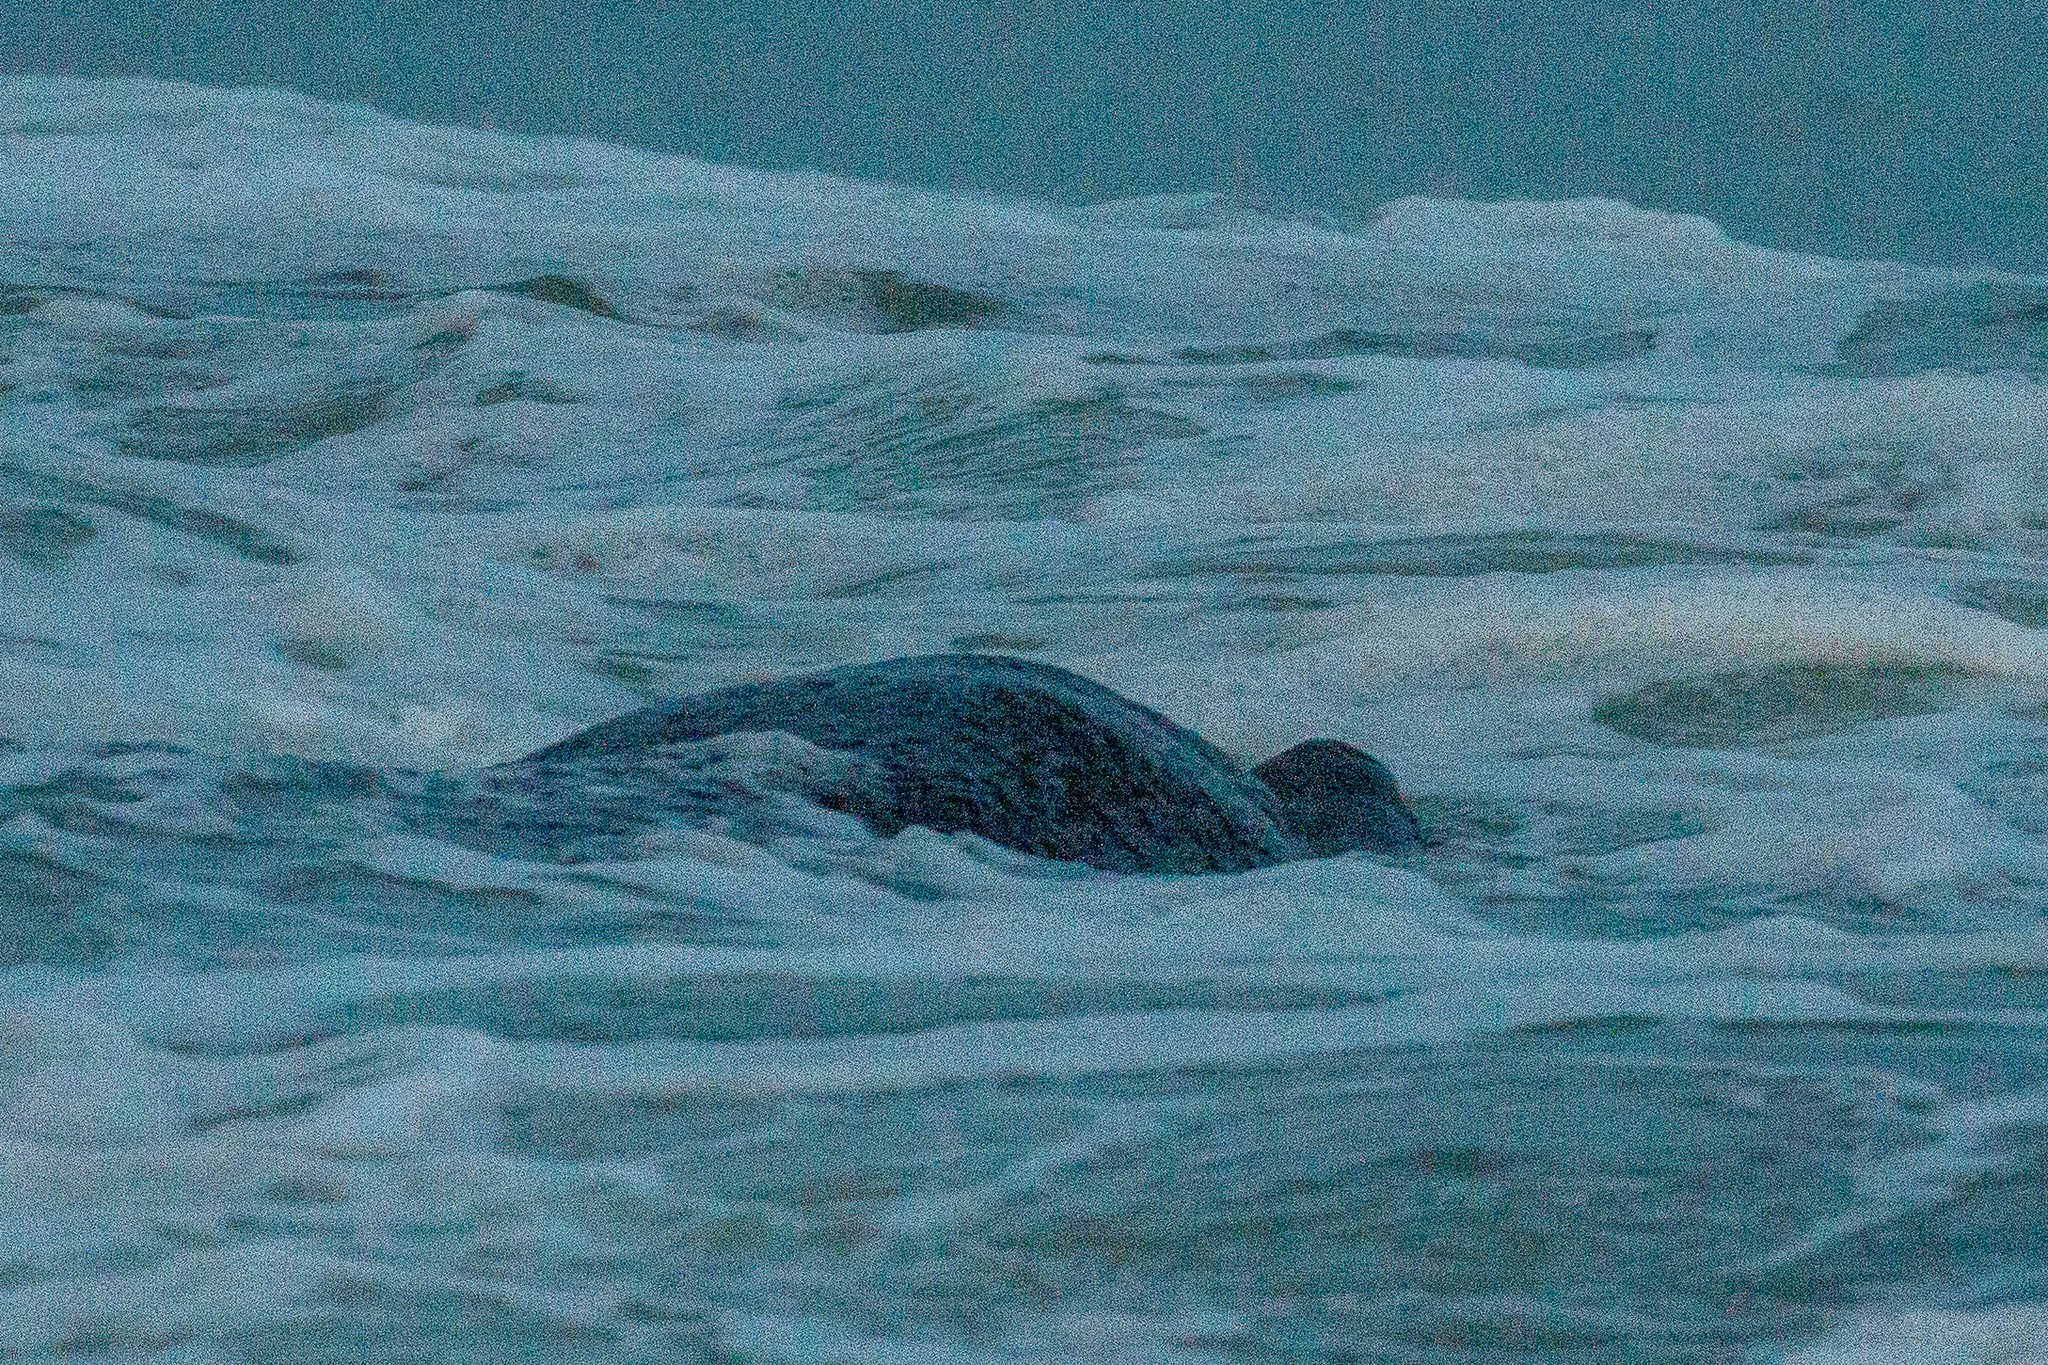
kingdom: Animalia
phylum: Chordata
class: Mammalia
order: Sirenia
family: Trichechidae
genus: Trichechus
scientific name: Trichechus manatus
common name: West indian manatee
